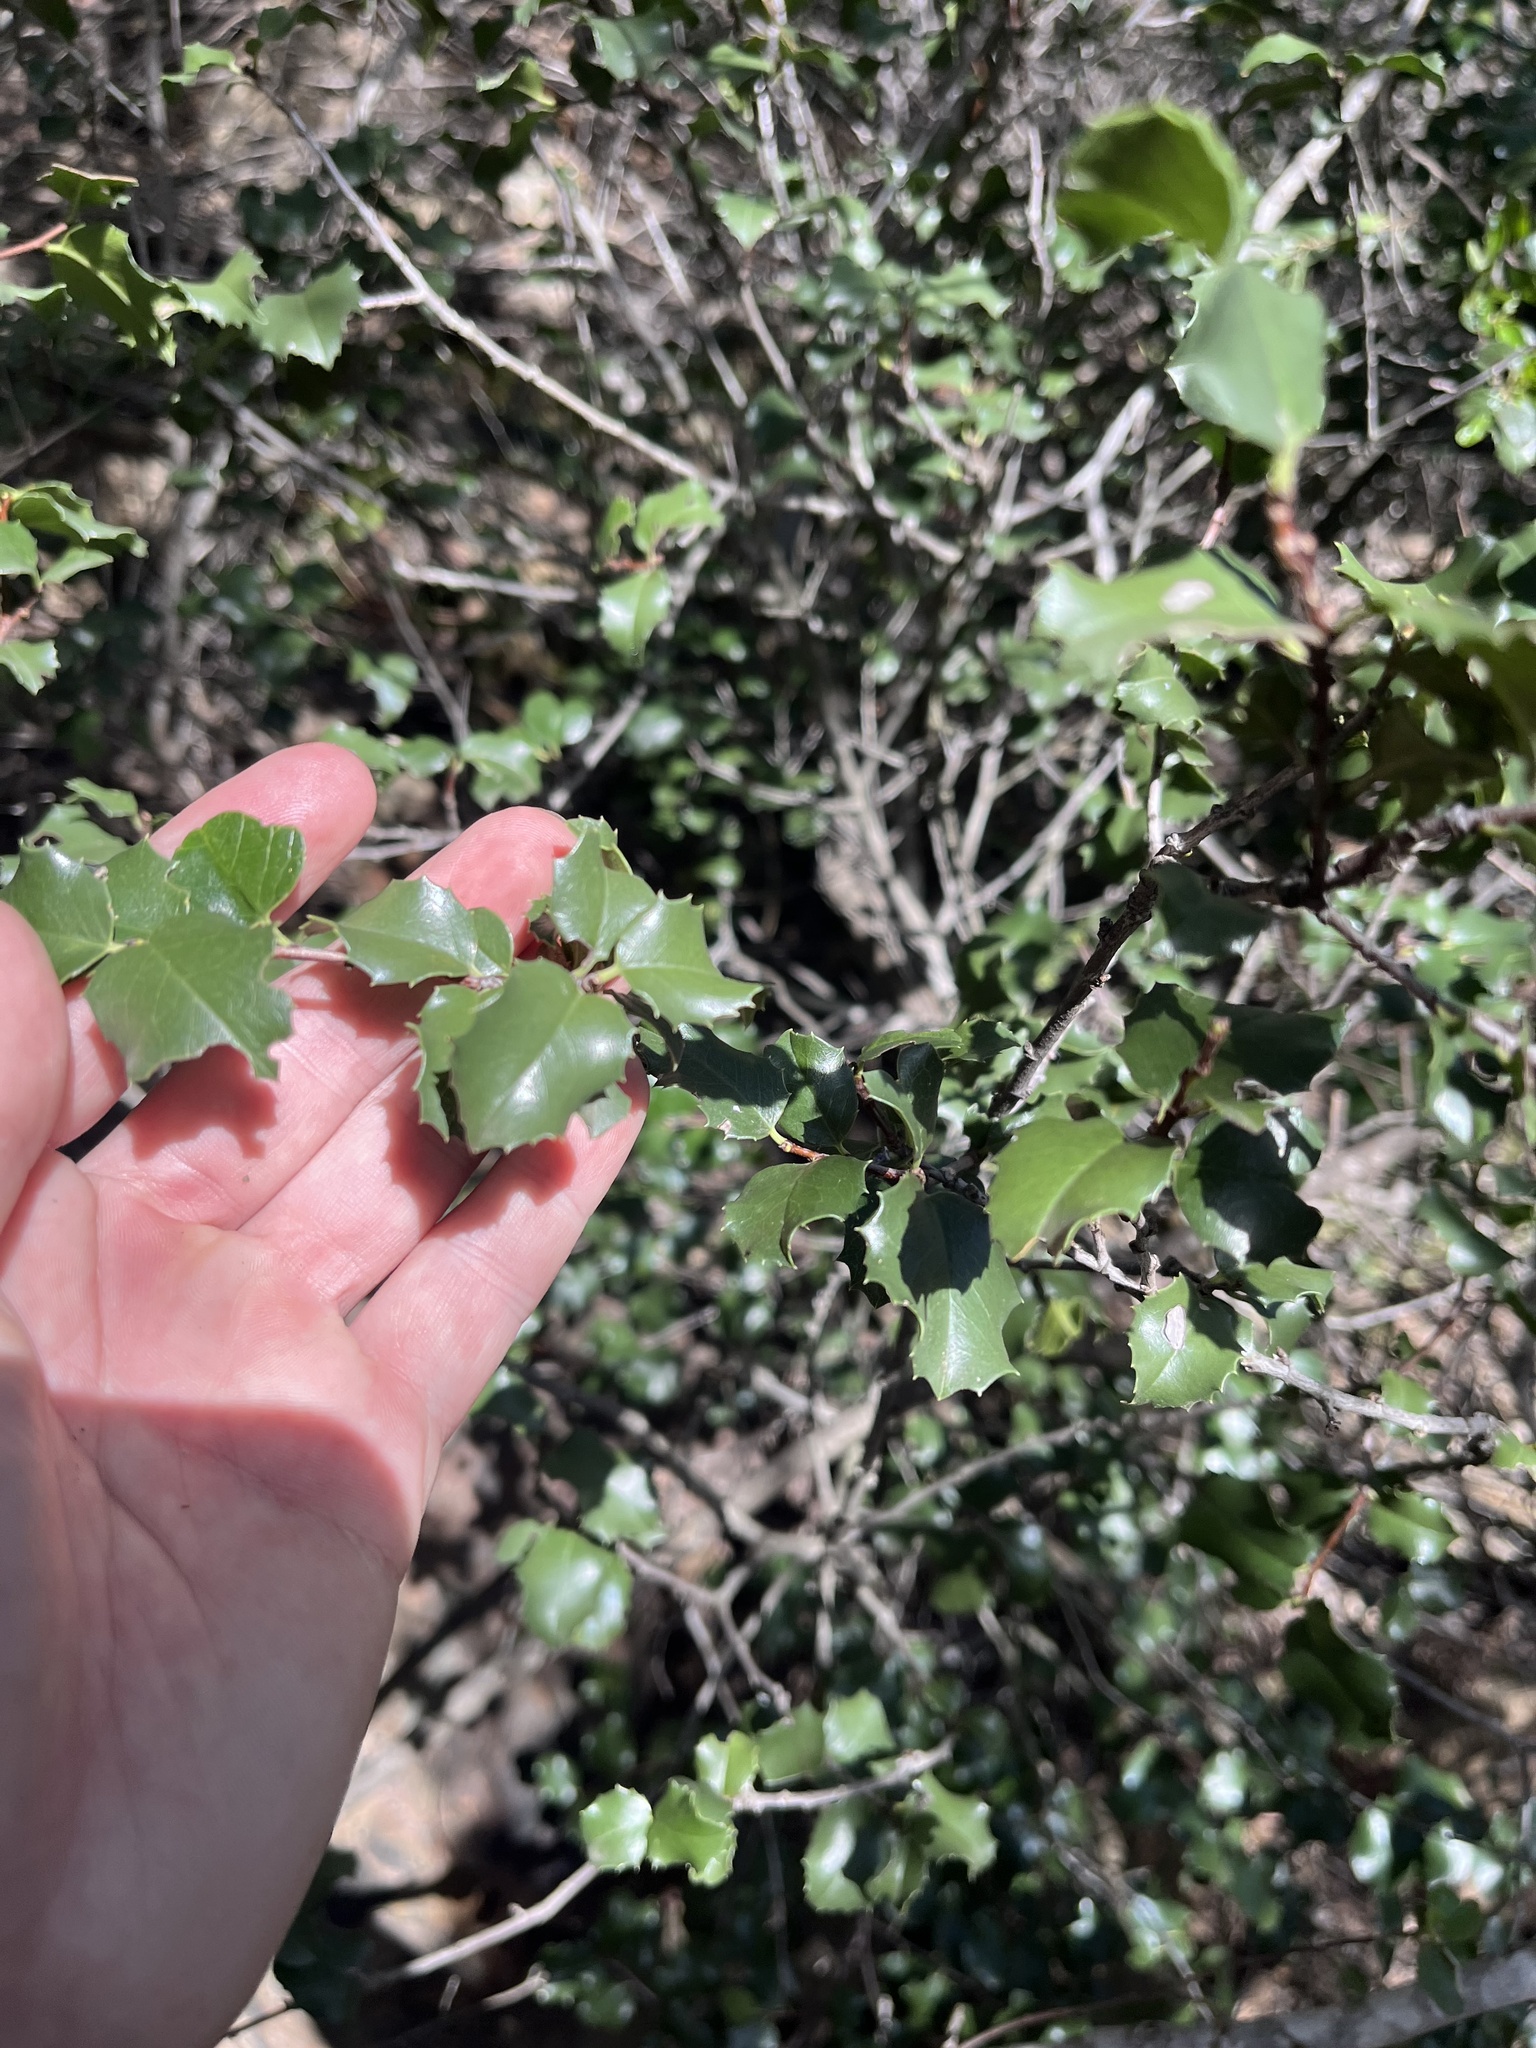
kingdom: Plantae
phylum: Tracheophyta
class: Magnoliopsida
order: Rosales
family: Rosaceae
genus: Prunus
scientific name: Prunus ilicifolia
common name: Hollyleaf cherry
